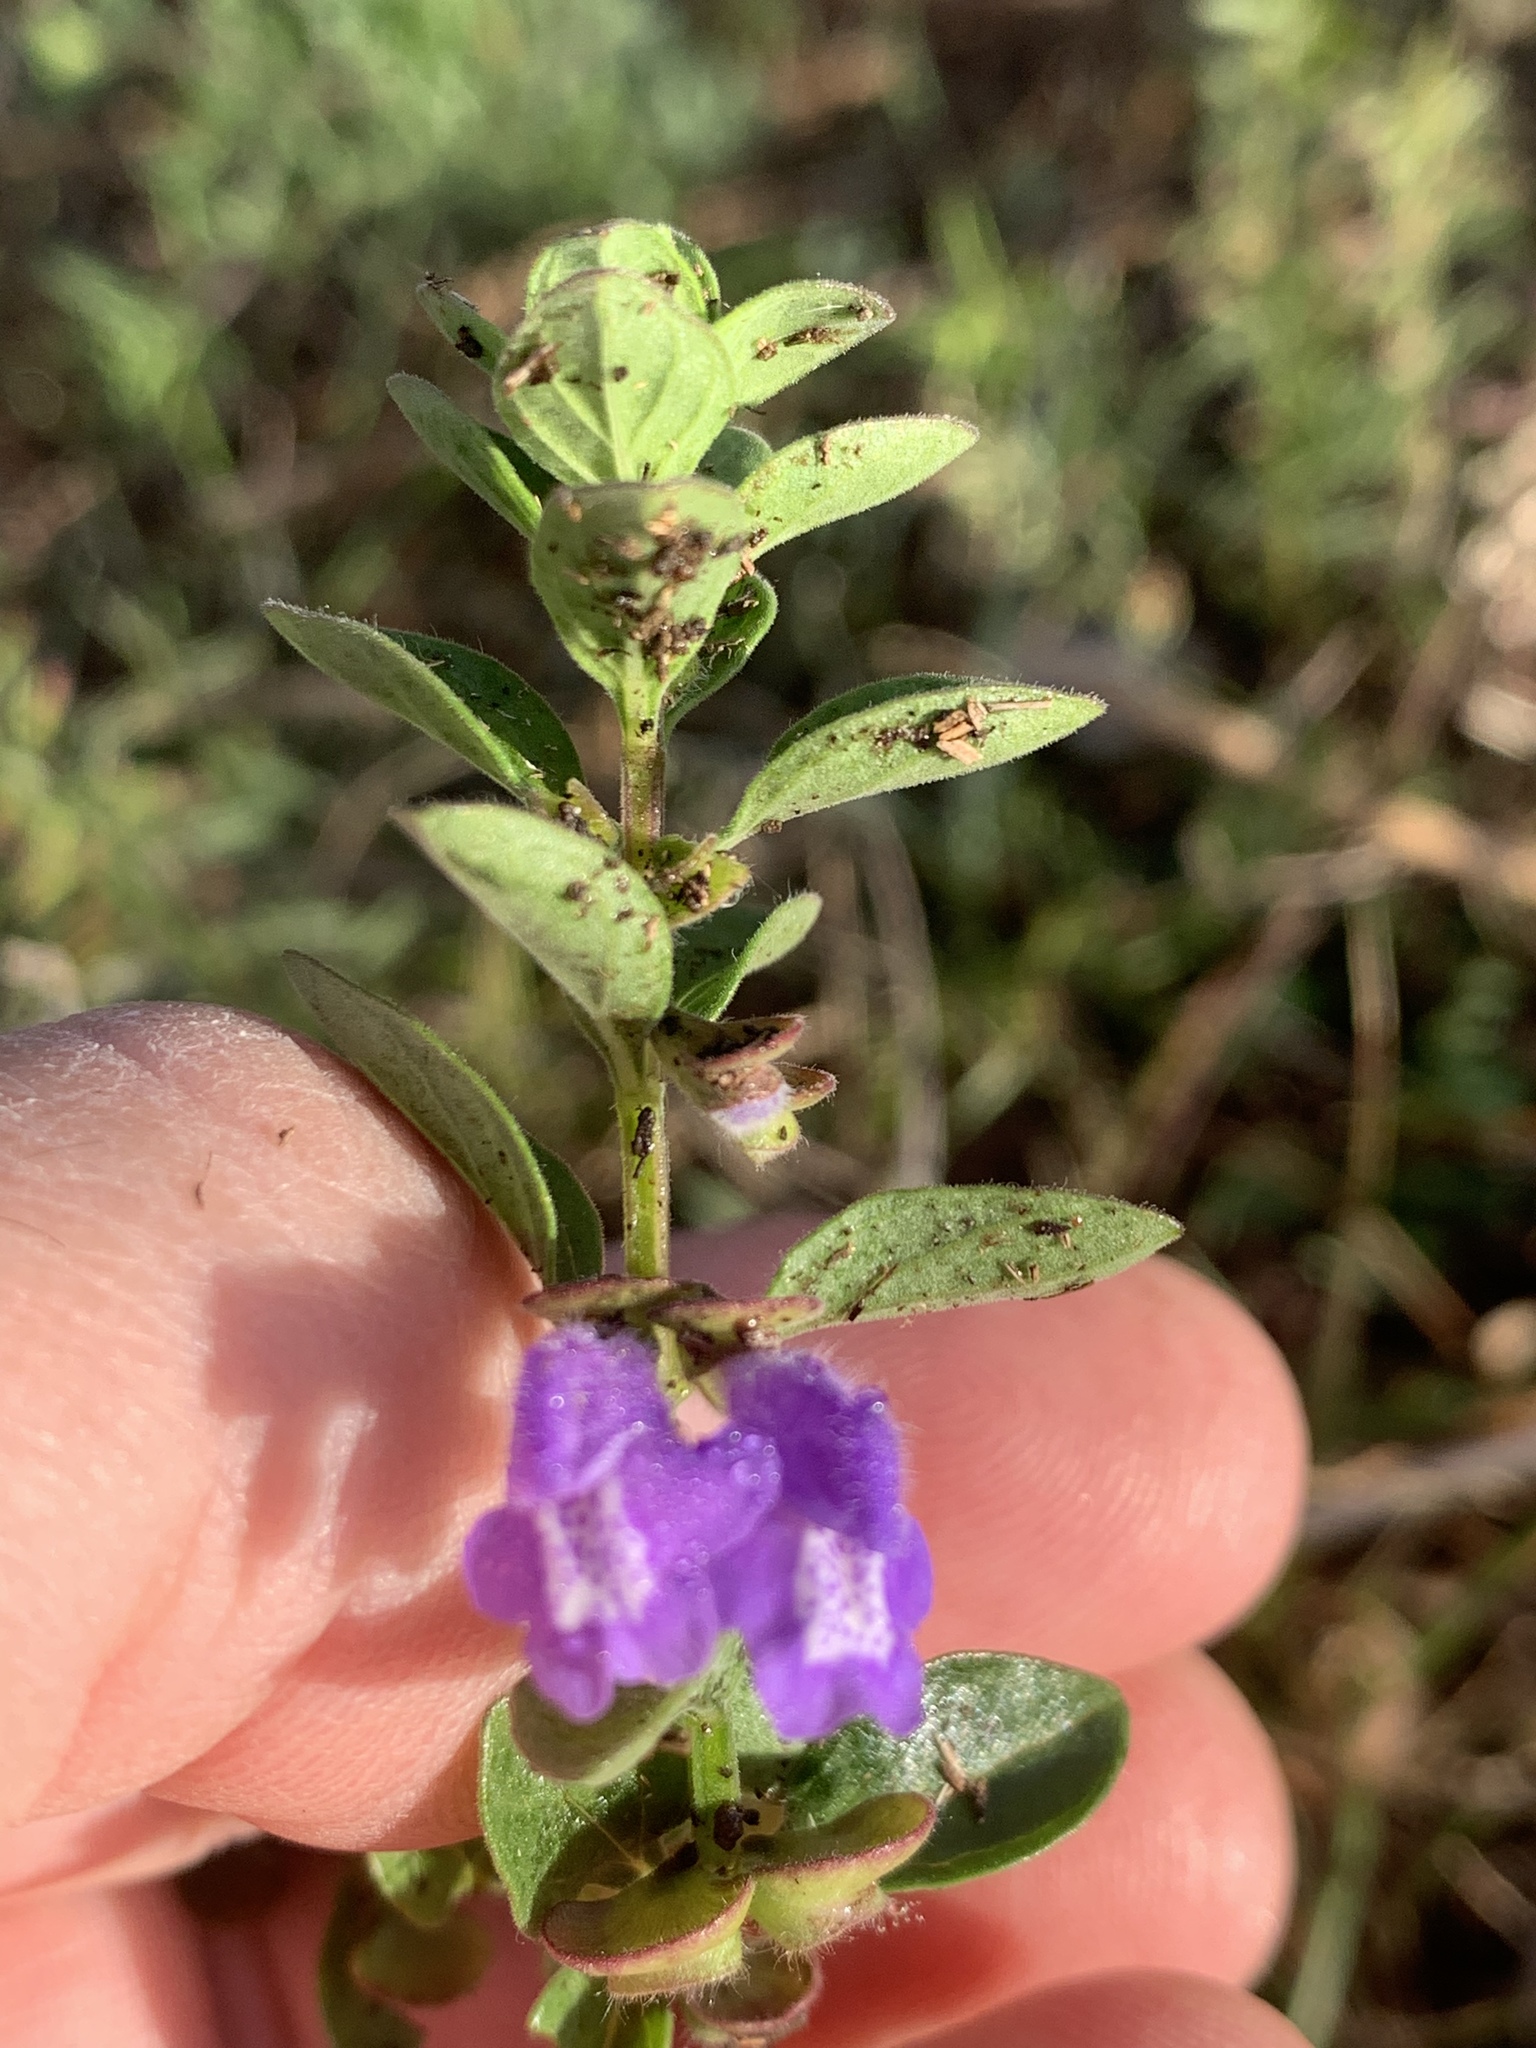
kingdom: Plantae
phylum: Tracheophyta
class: Magnoliopsida
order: Lamiales
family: Lamiaceae
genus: Scutellaria
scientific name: Scutellaria drummondii
